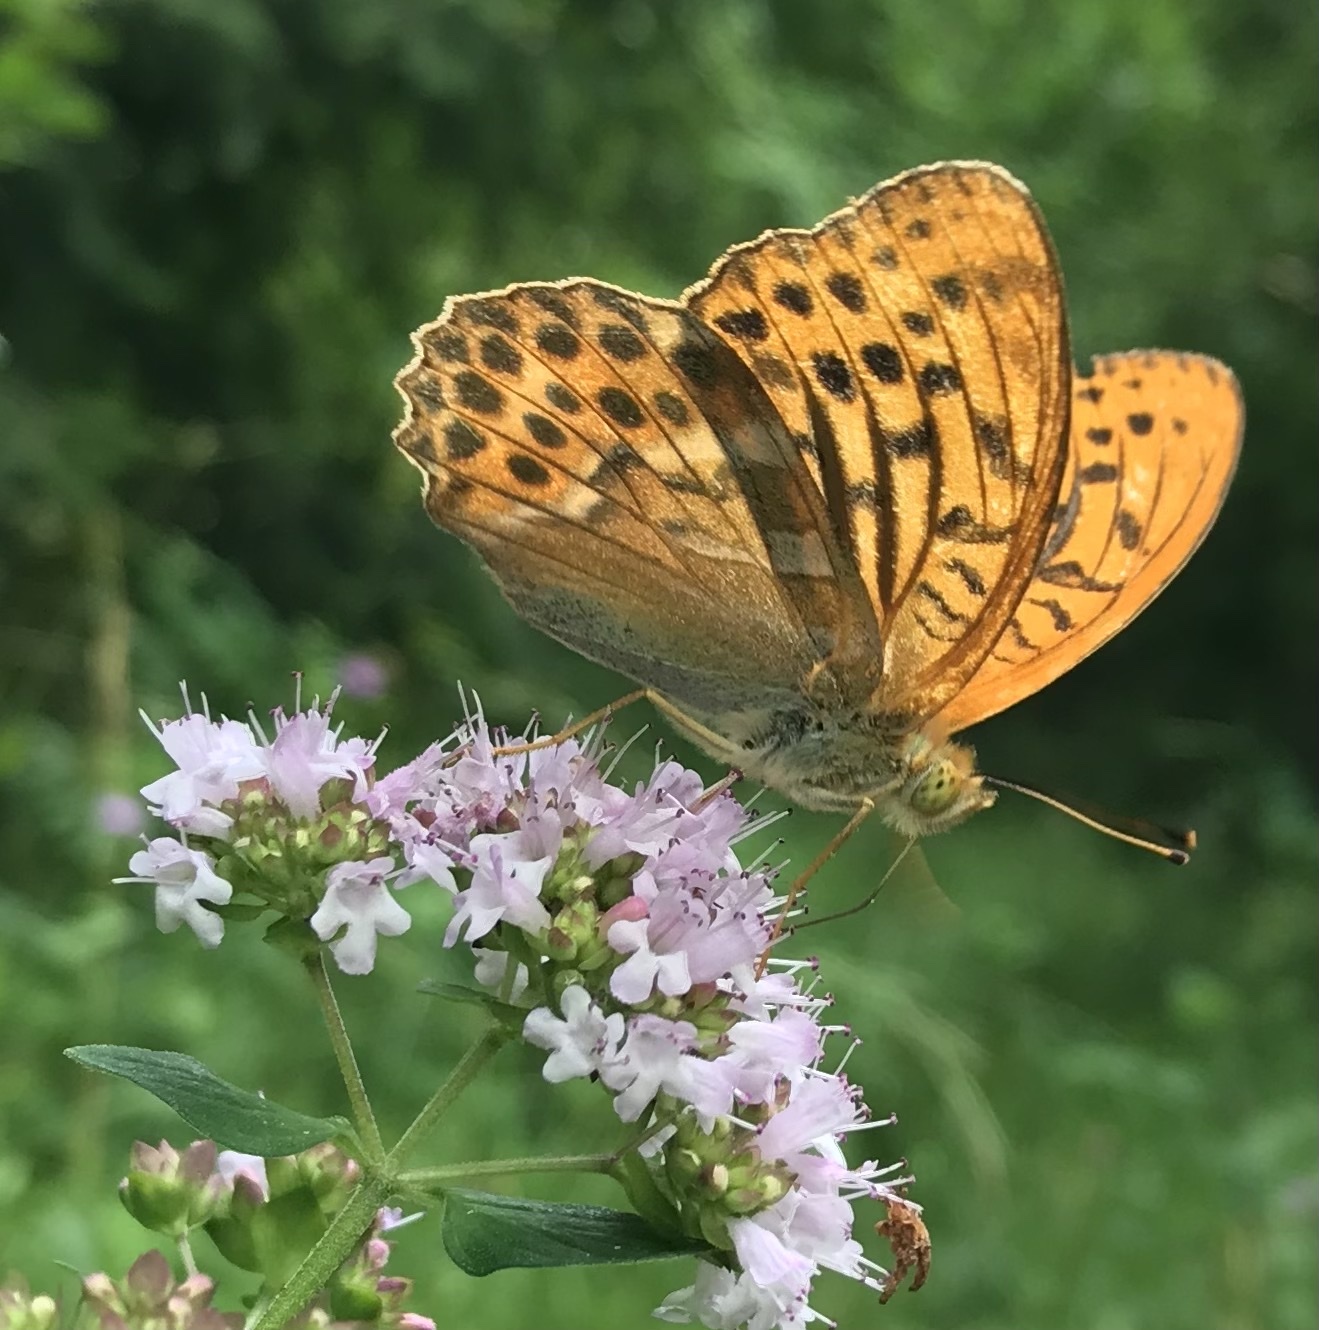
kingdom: Animalia
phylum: Arthropoda
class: Insecta
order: Lepidoptera
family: Nymphalidae
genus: Argynnis
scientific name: Argynnis paphia
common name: Silver-washed fritillary
